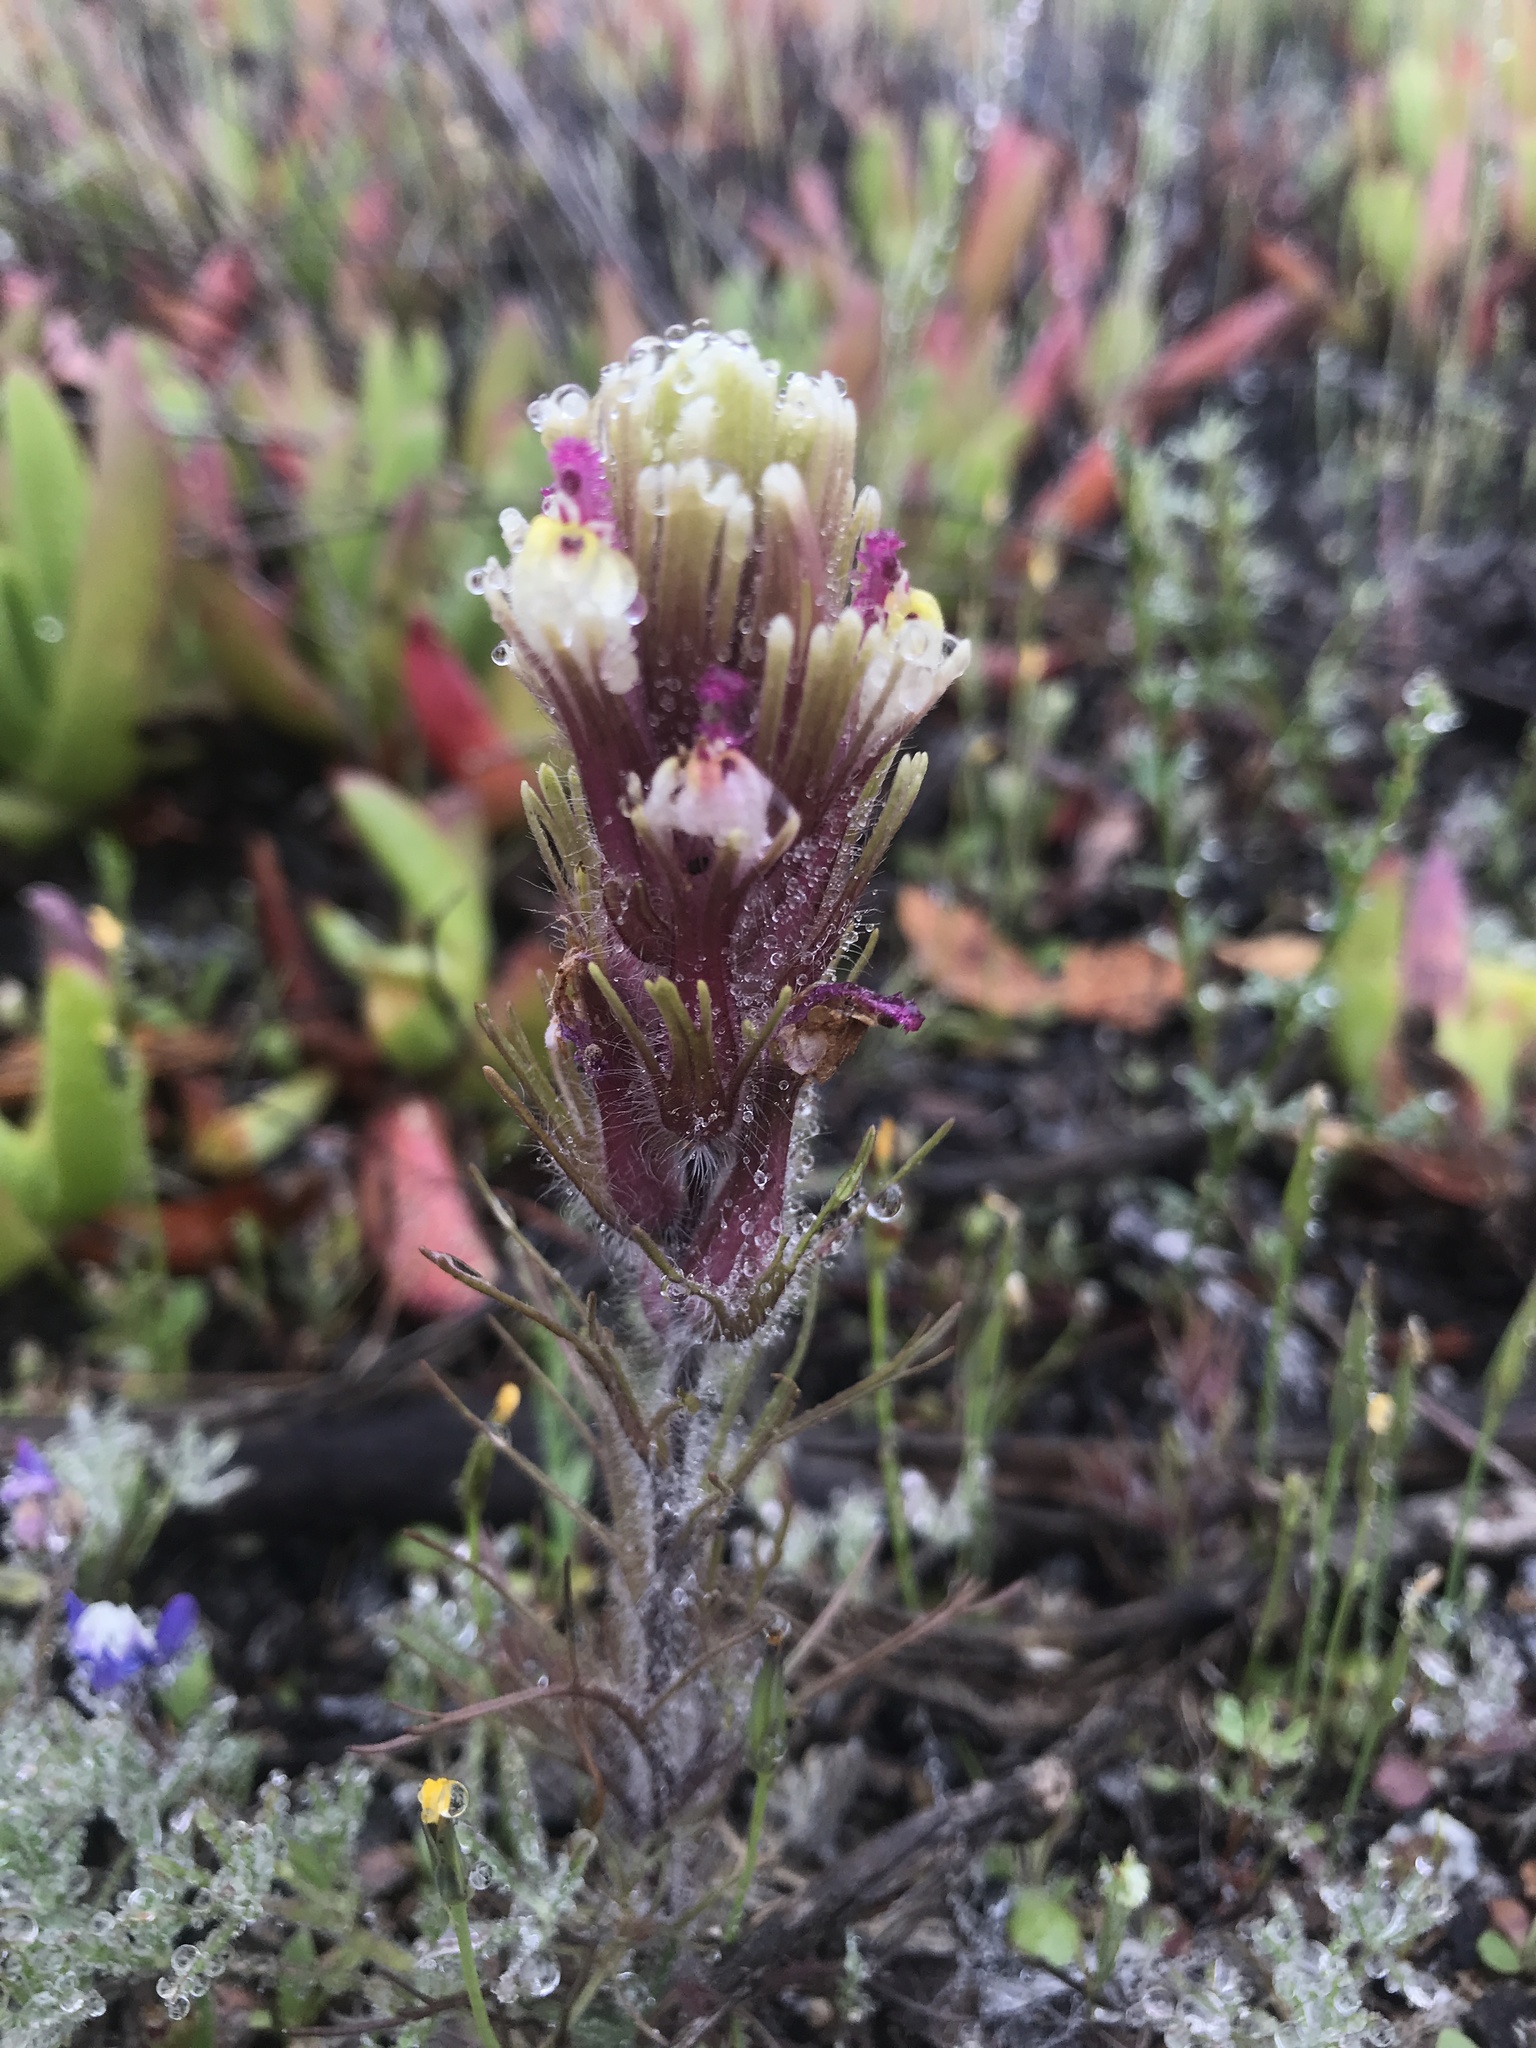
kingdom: Plantae
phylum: Tracheophyta
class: Magnoliopsida
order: Lamiales
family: Orobanchaceae
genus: Castilleja
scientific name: Castilleja exserta
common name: Purple owl-clover
